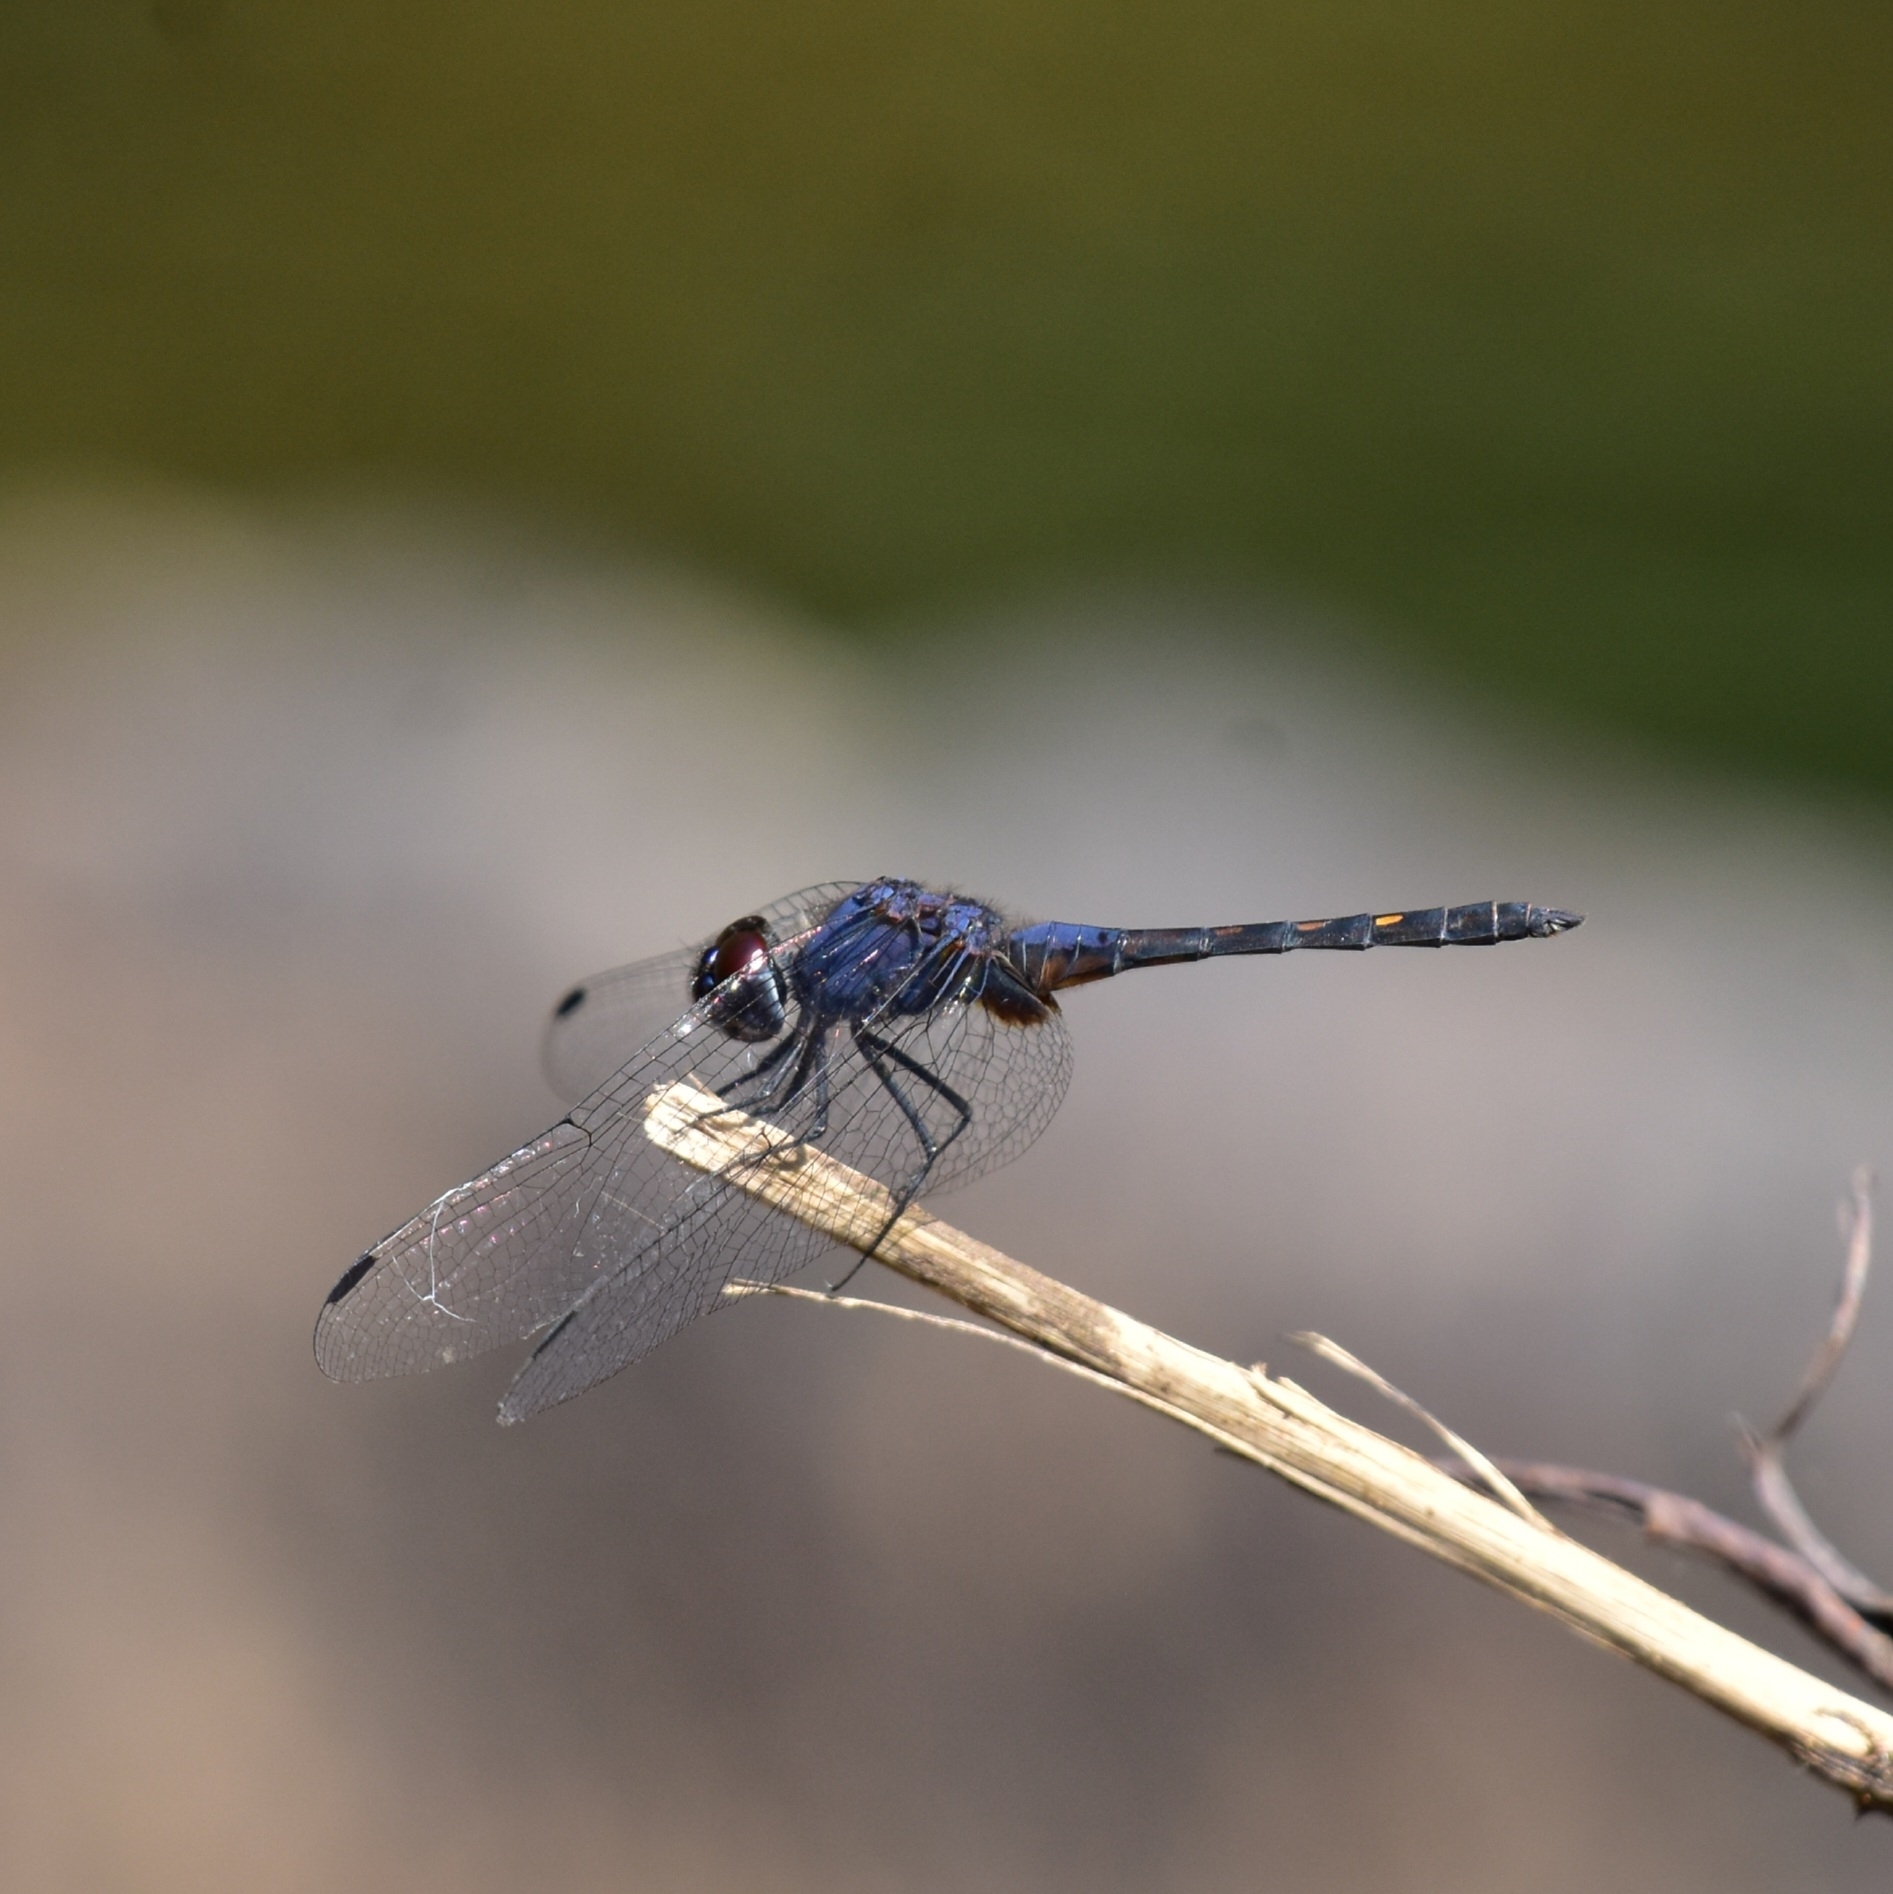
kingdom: Animalia
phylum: Arthropoda
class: Insecta
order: Odonata
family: Libellulidae
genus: Trithemis
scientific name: Trithemis festiva
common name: Indigo dropwing
